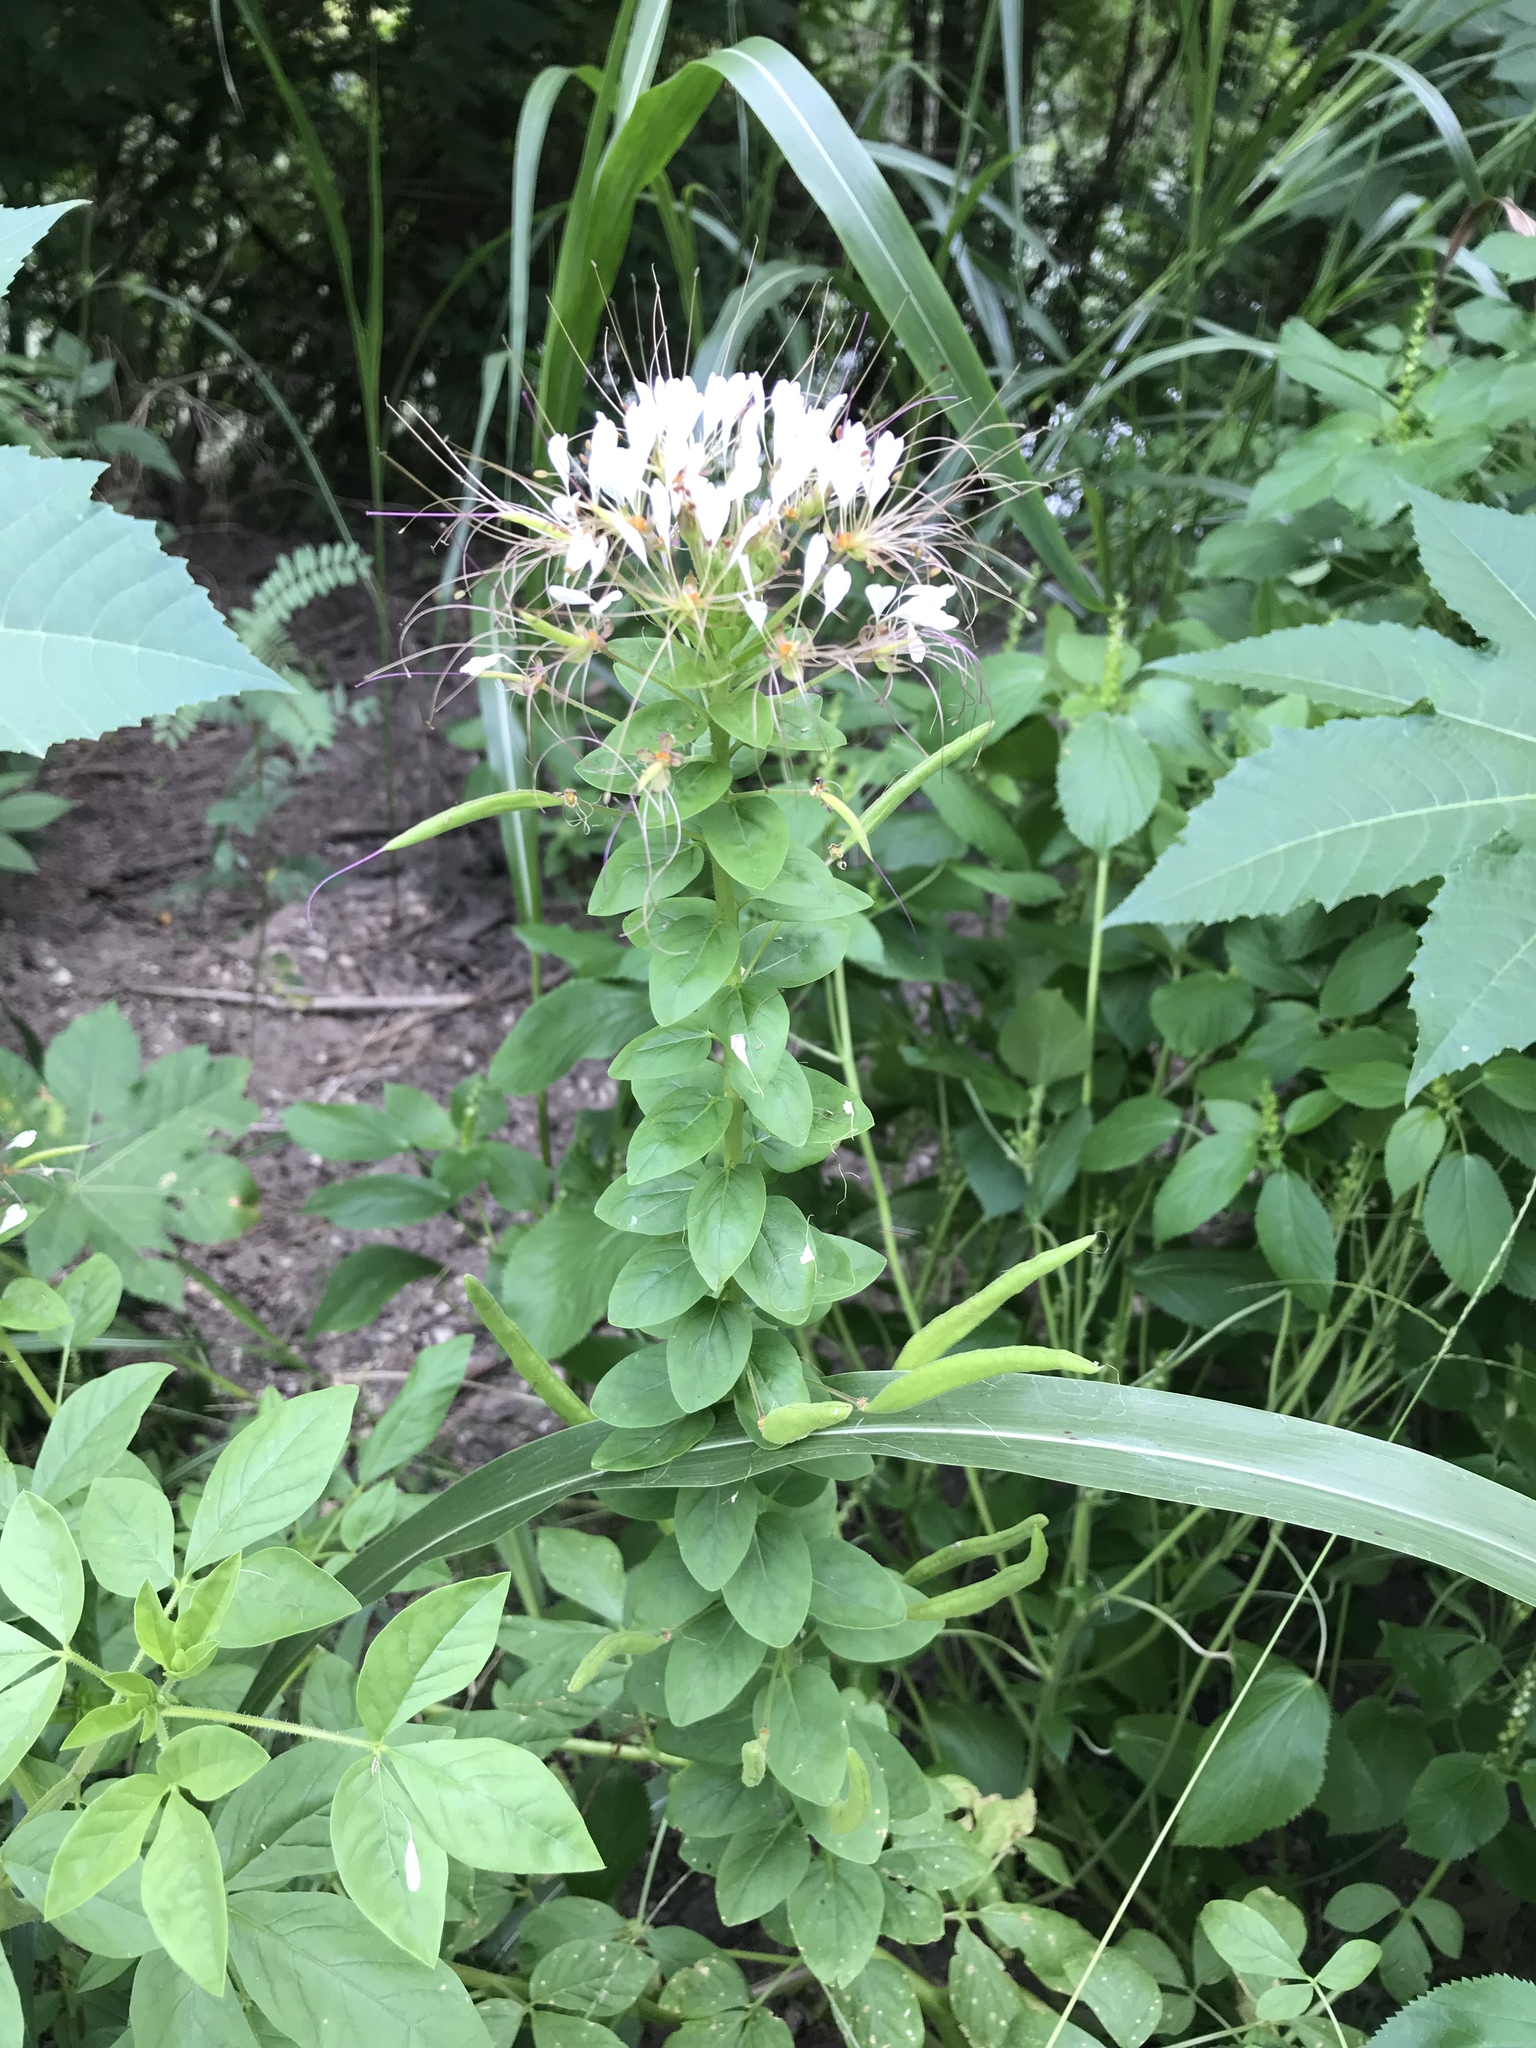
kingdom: Plantae
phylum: Tracheophyta
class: Magnoliopsida
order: Brassicales
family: Cleomaceae
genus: Polanisia
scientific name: Polanisia dodecandra
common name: Clammyweed
